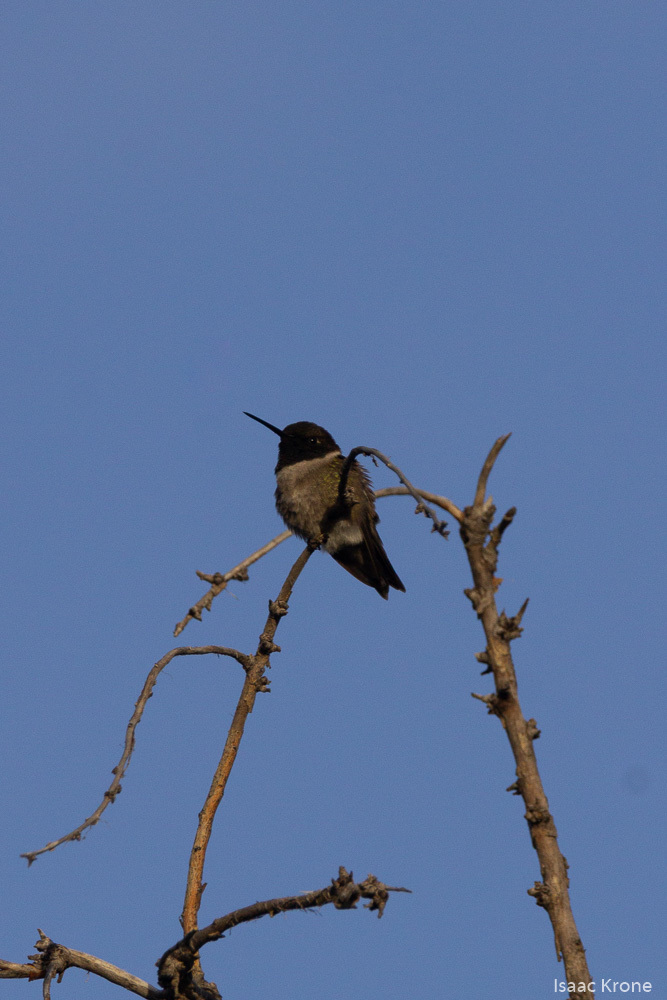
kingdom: Animalia
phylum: Chordata
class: Aves
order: Apodiformes
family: Trochilidae
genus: Archilochus
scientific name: Archilochus alexandri
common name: Black-chinned hummingbird
